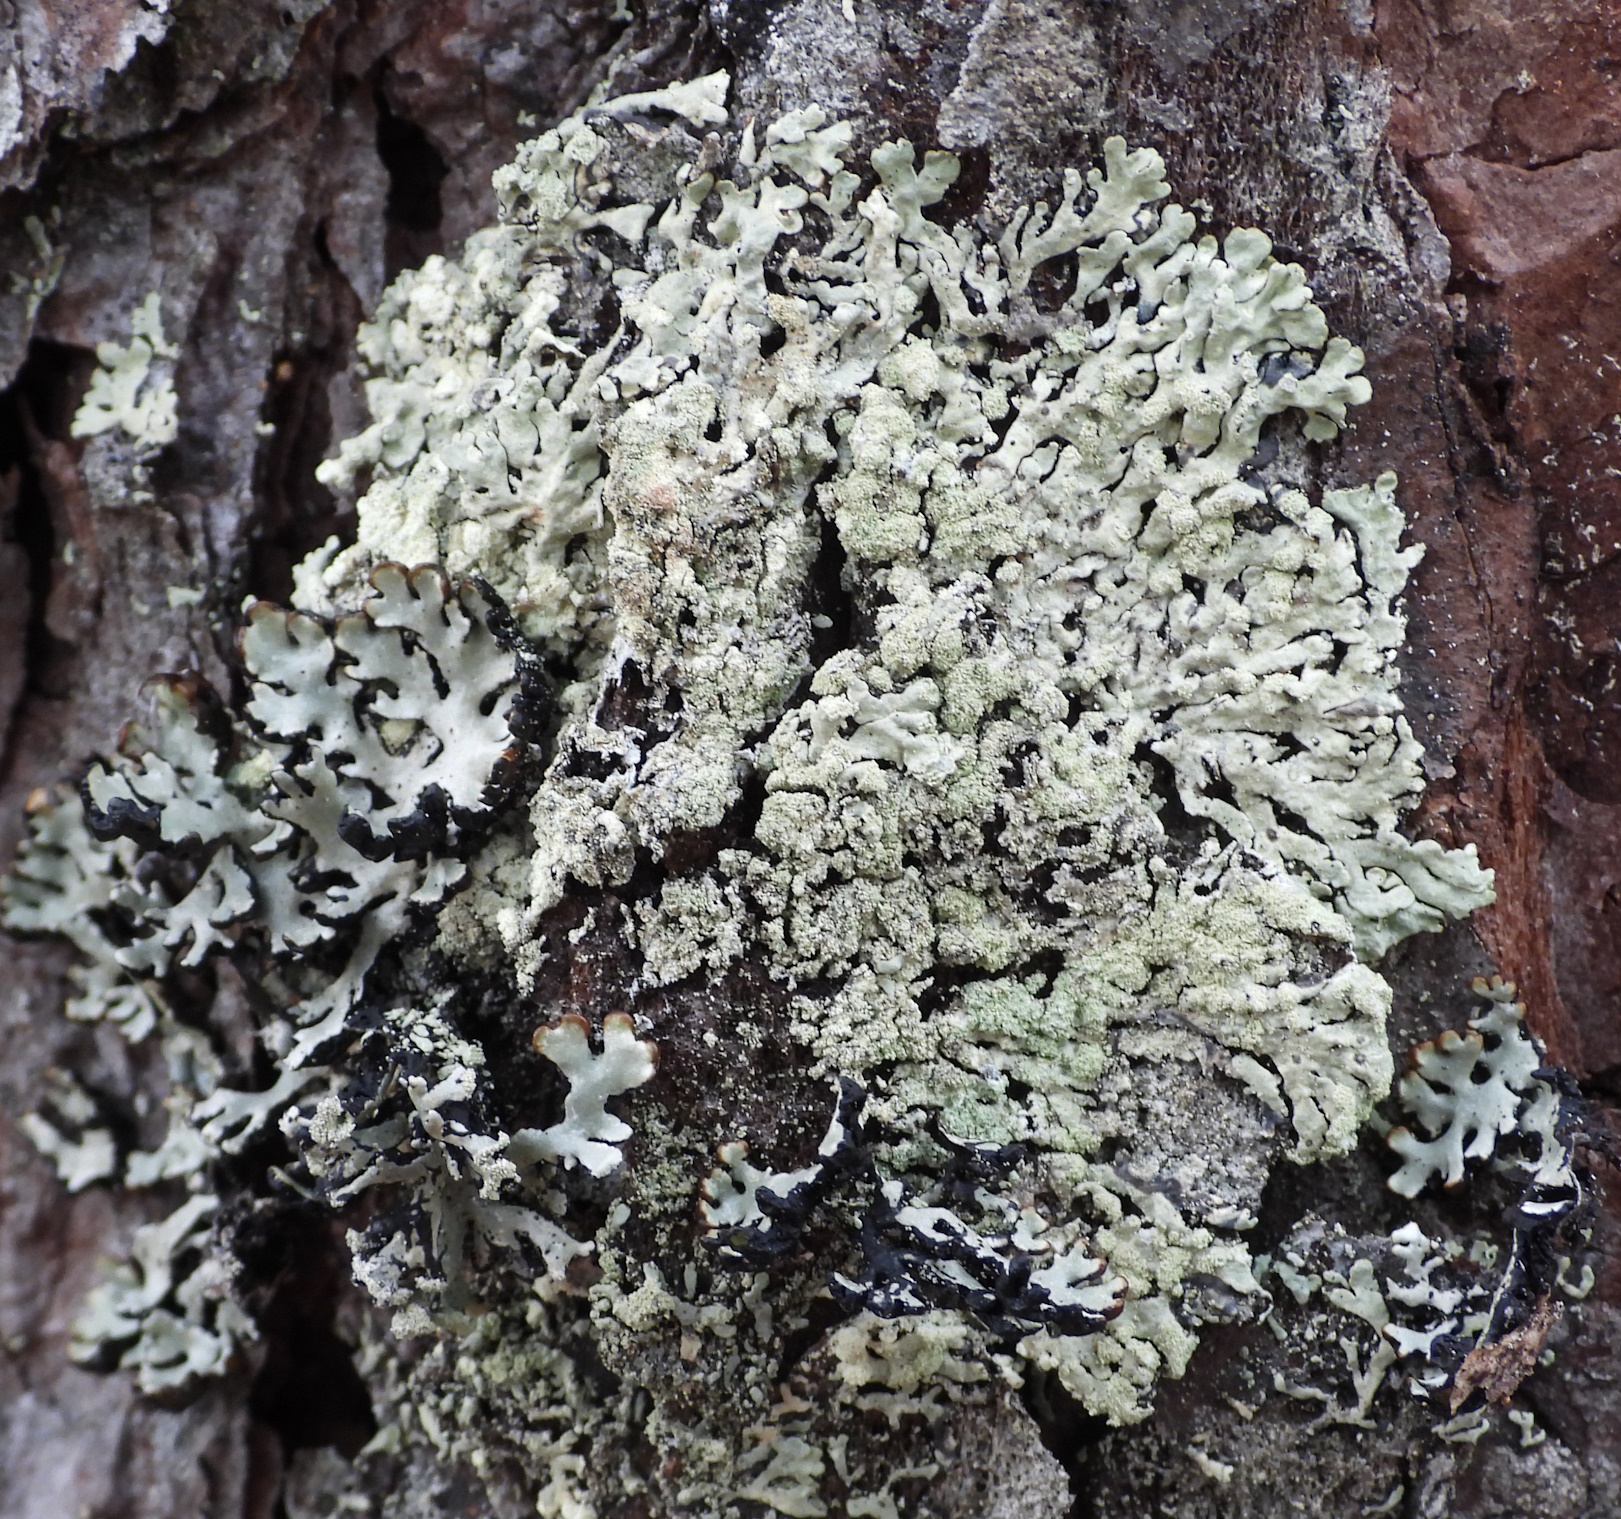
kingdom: Fungi
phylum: Ascomycota
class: Lecanoromycetes
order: Lecanorales
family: Parmeliaceae
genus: Parmeliopsis
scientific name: Parmeliopsis ambigua
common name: Green starburst lichen
